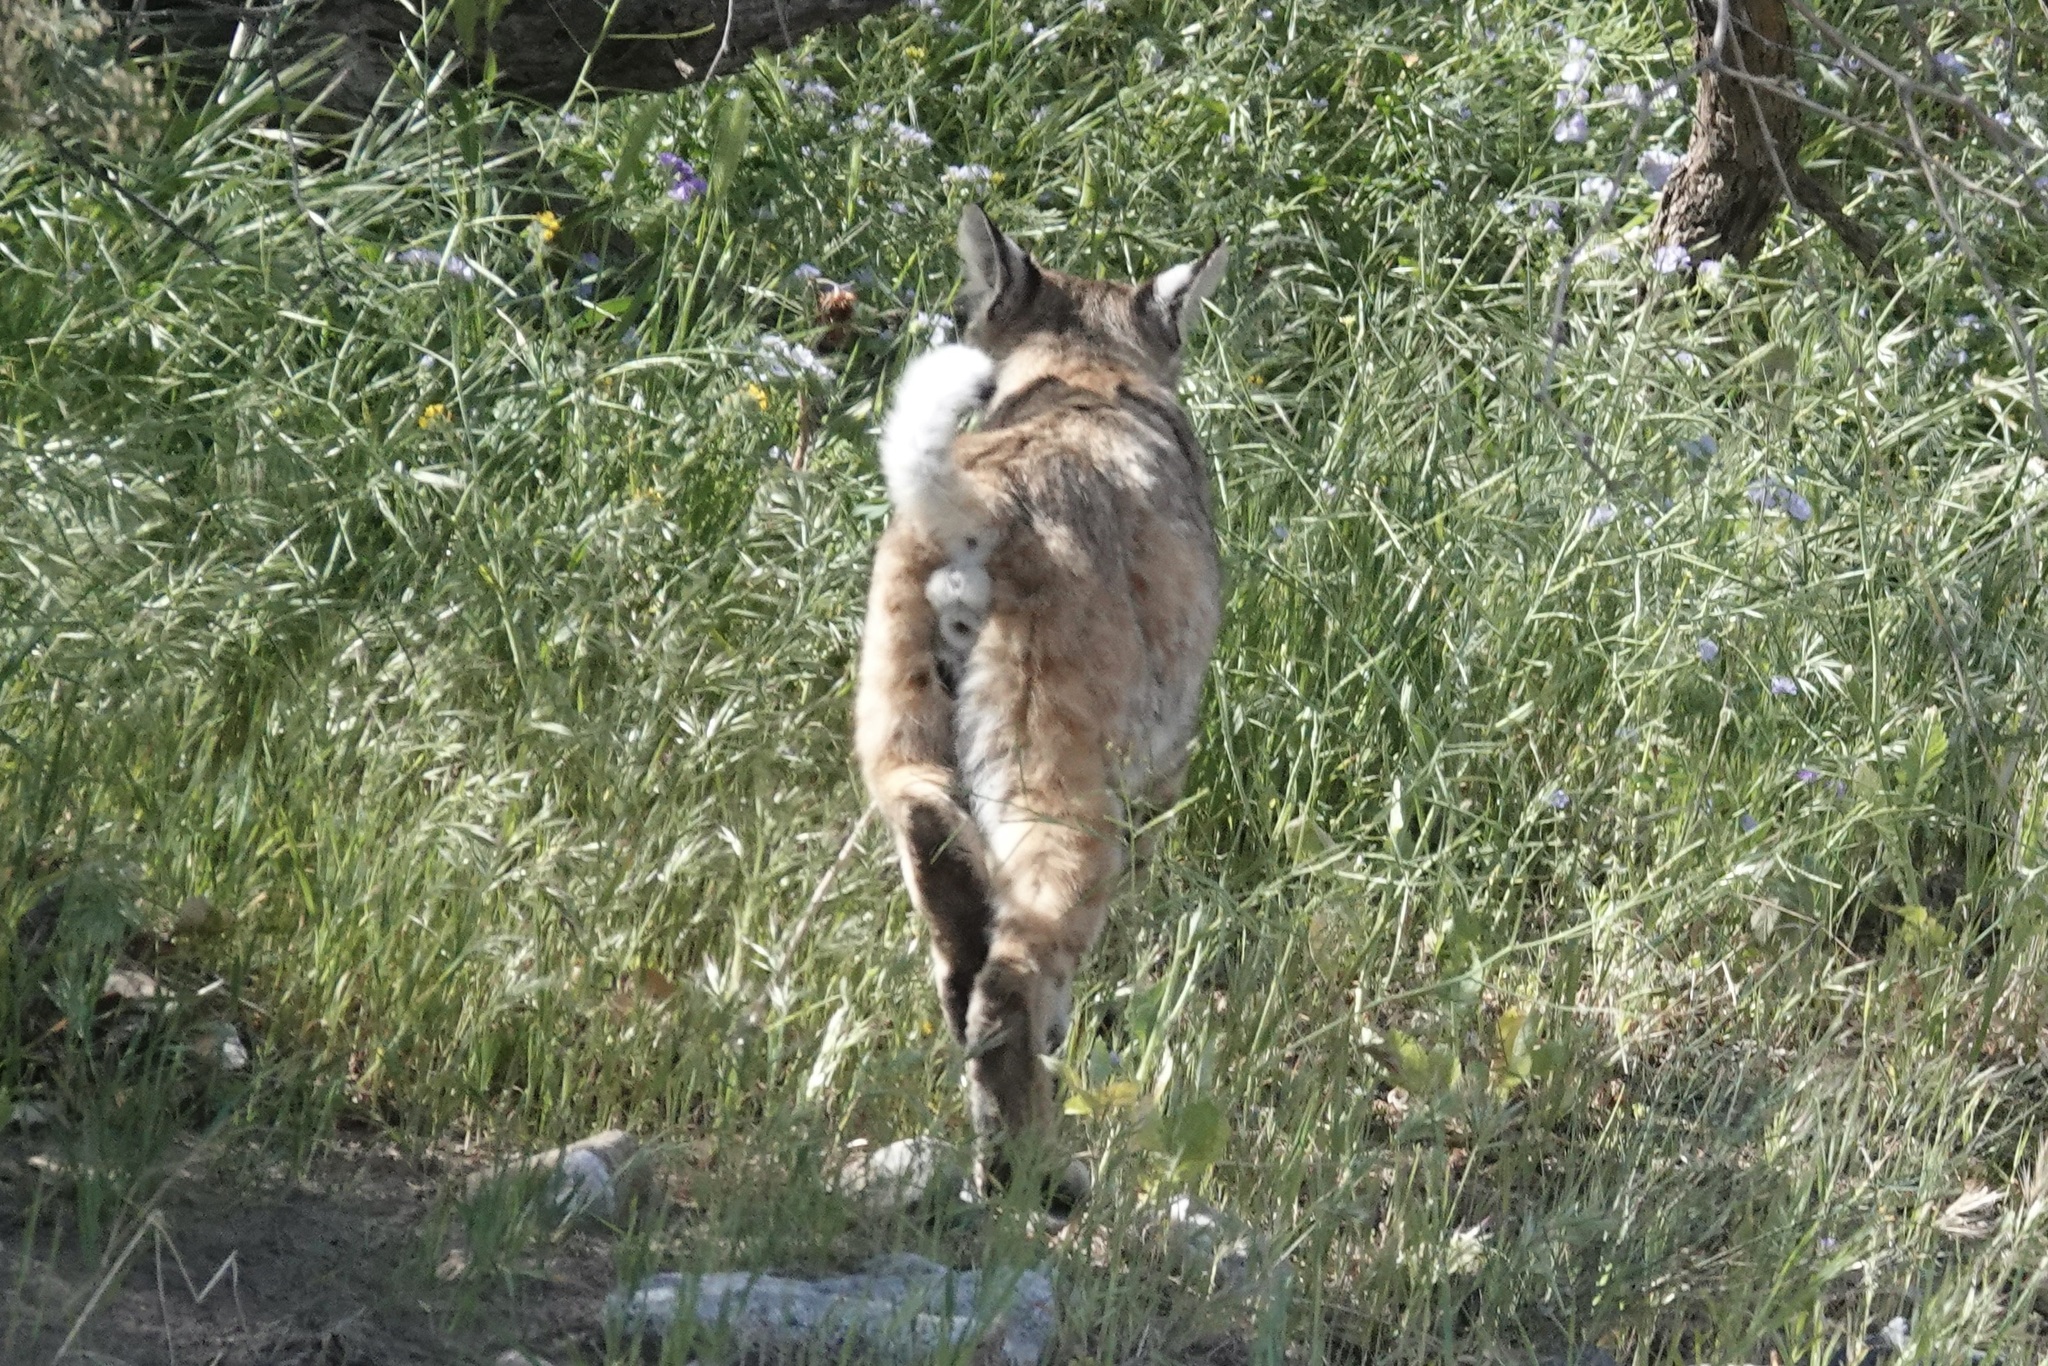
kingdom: Animalia
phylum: Chordata
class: Mammalia
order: Carnivora
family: Felidae
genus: Lynx
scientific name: Lynx rufus
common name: Bobcat
